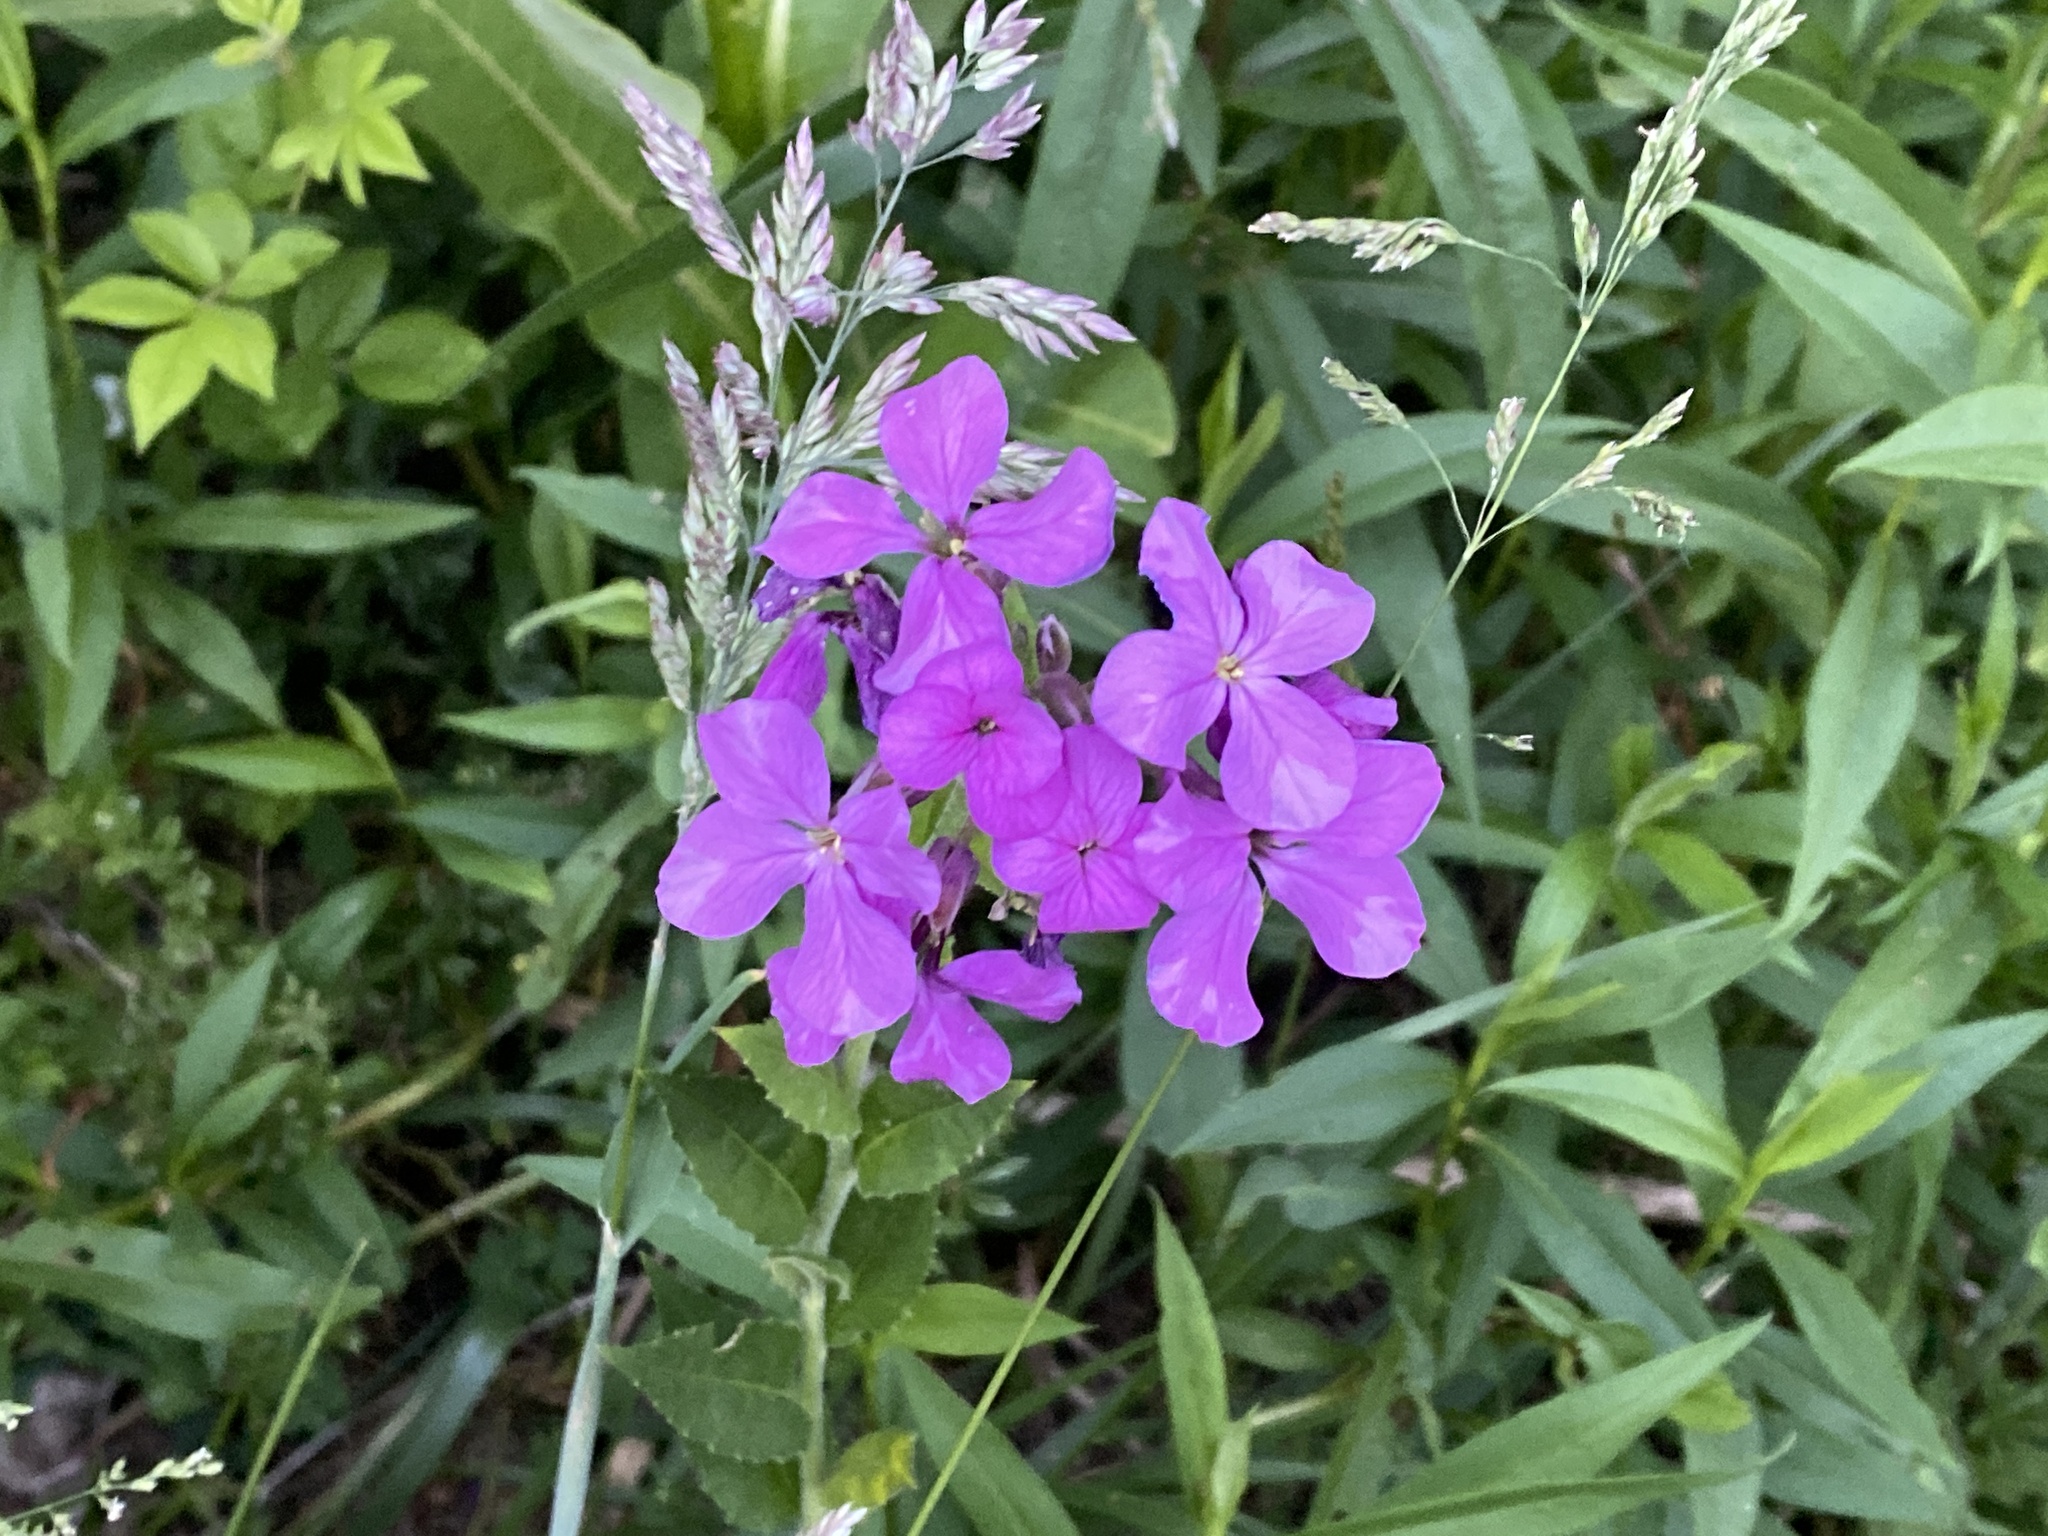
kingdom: Plantae
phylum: Tracheophyta
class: Magnoliopsida
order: Brassicales
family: Brassicaceae
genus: Hesperis
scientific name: Hesperis matronalis
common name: Dame's-violet
